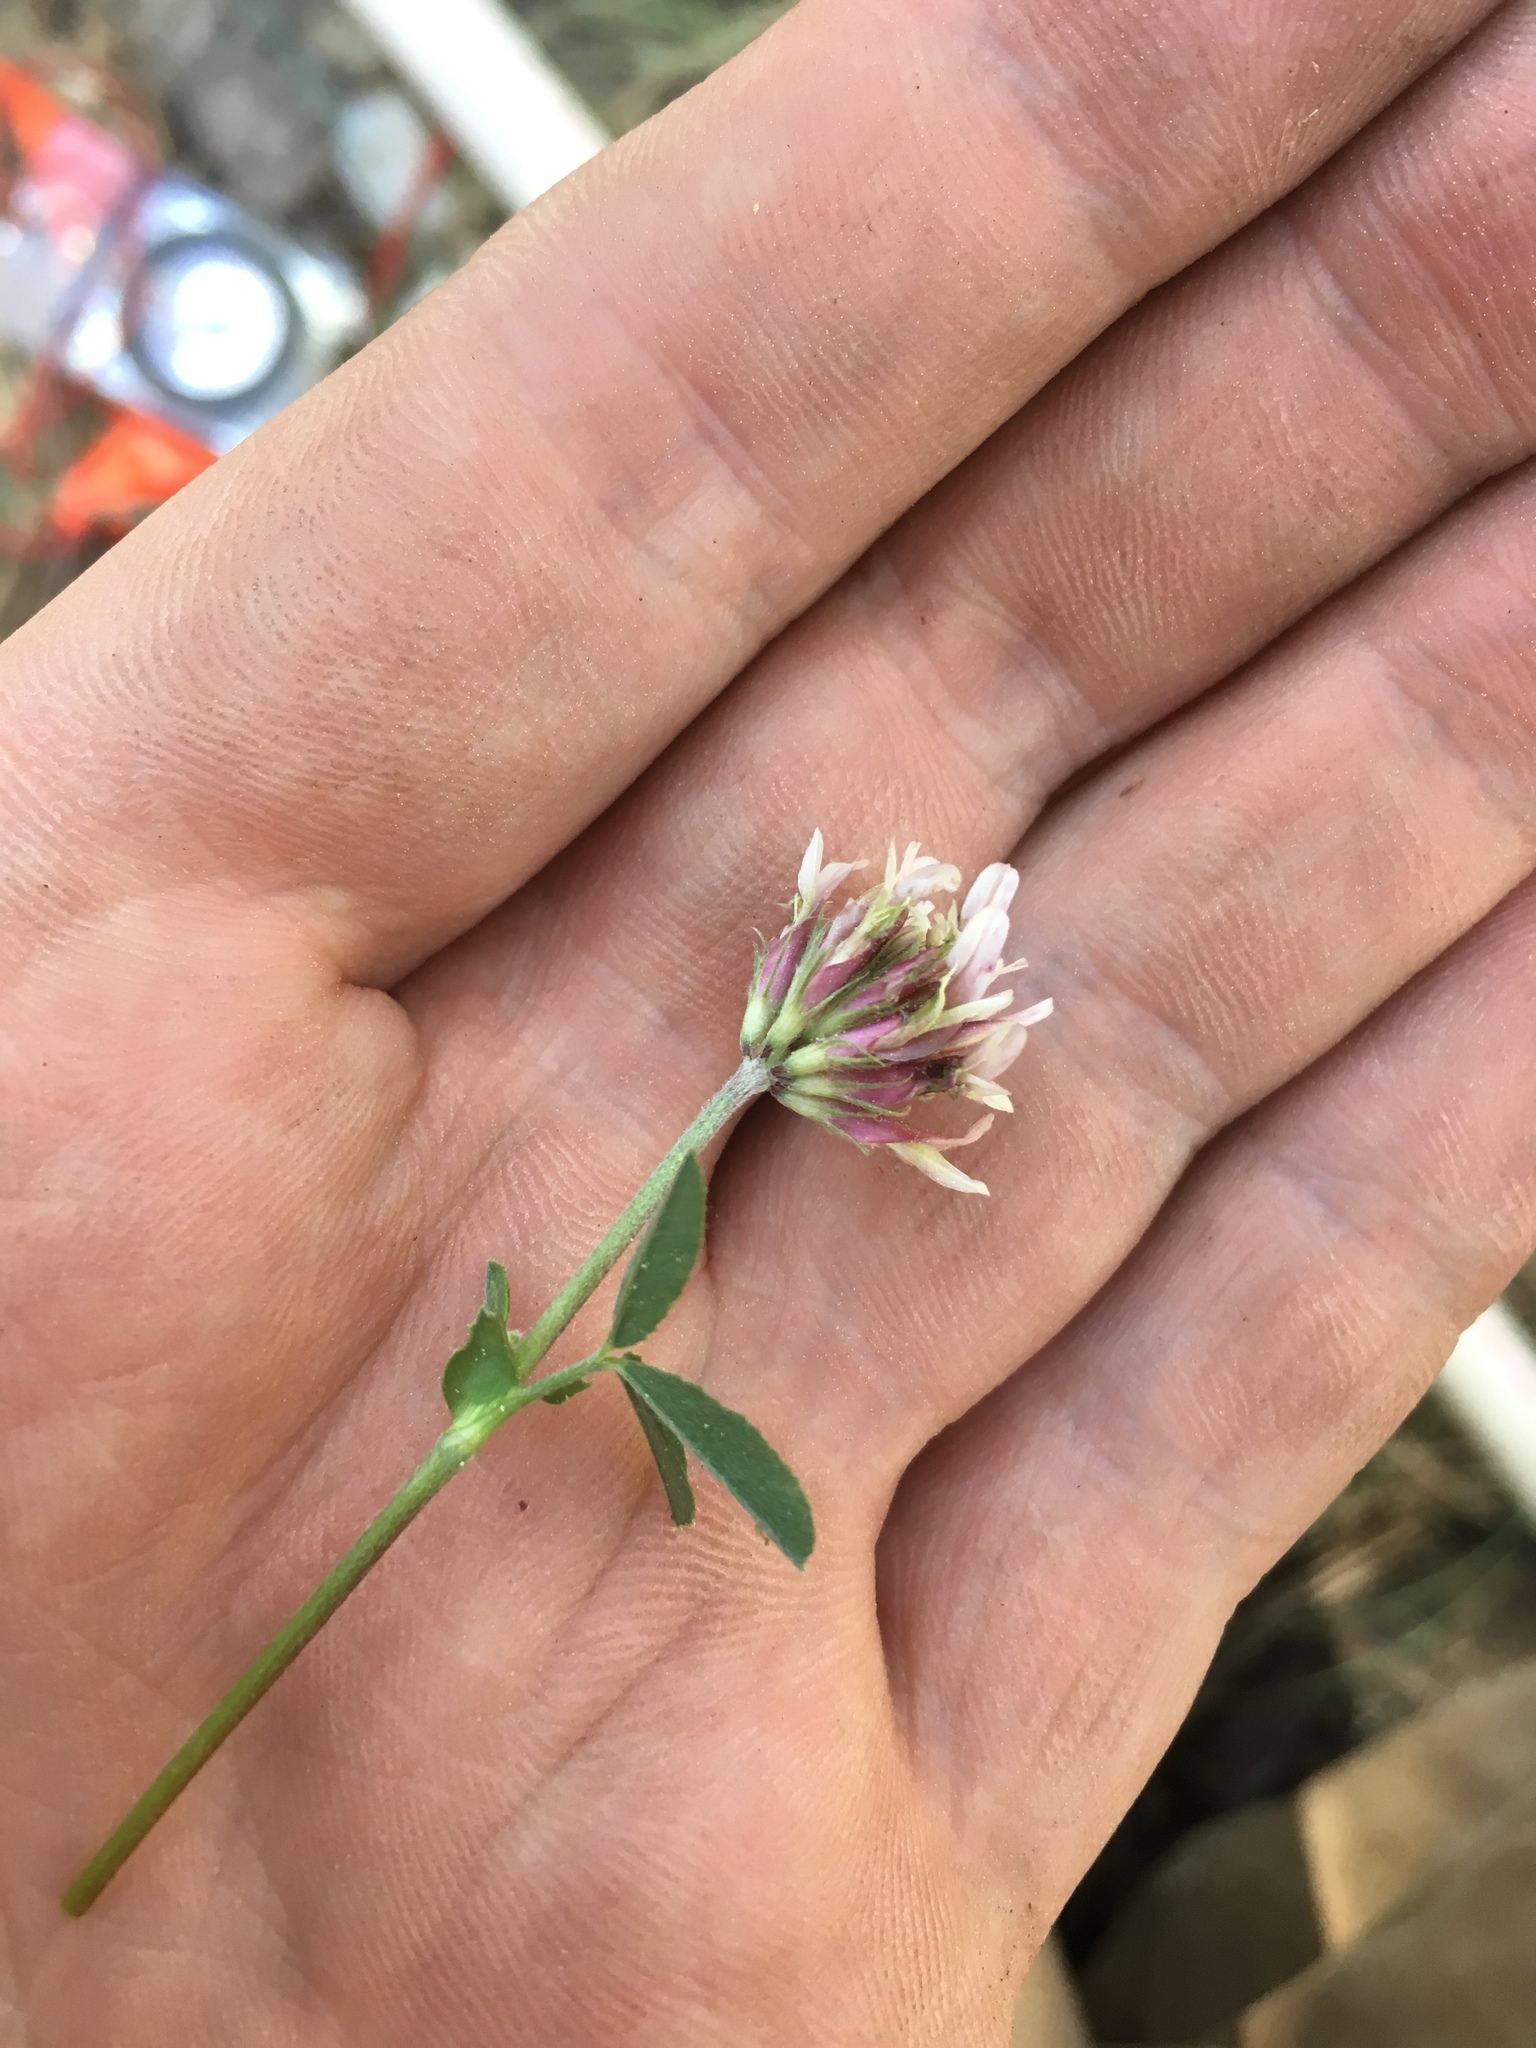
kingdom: Plantae
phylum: Tracheophyta
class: Magnoliopsida
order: Fabales
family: Fabaceae
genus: Trifolium
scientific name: Trifolium longipes
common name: Long-stalk clover
